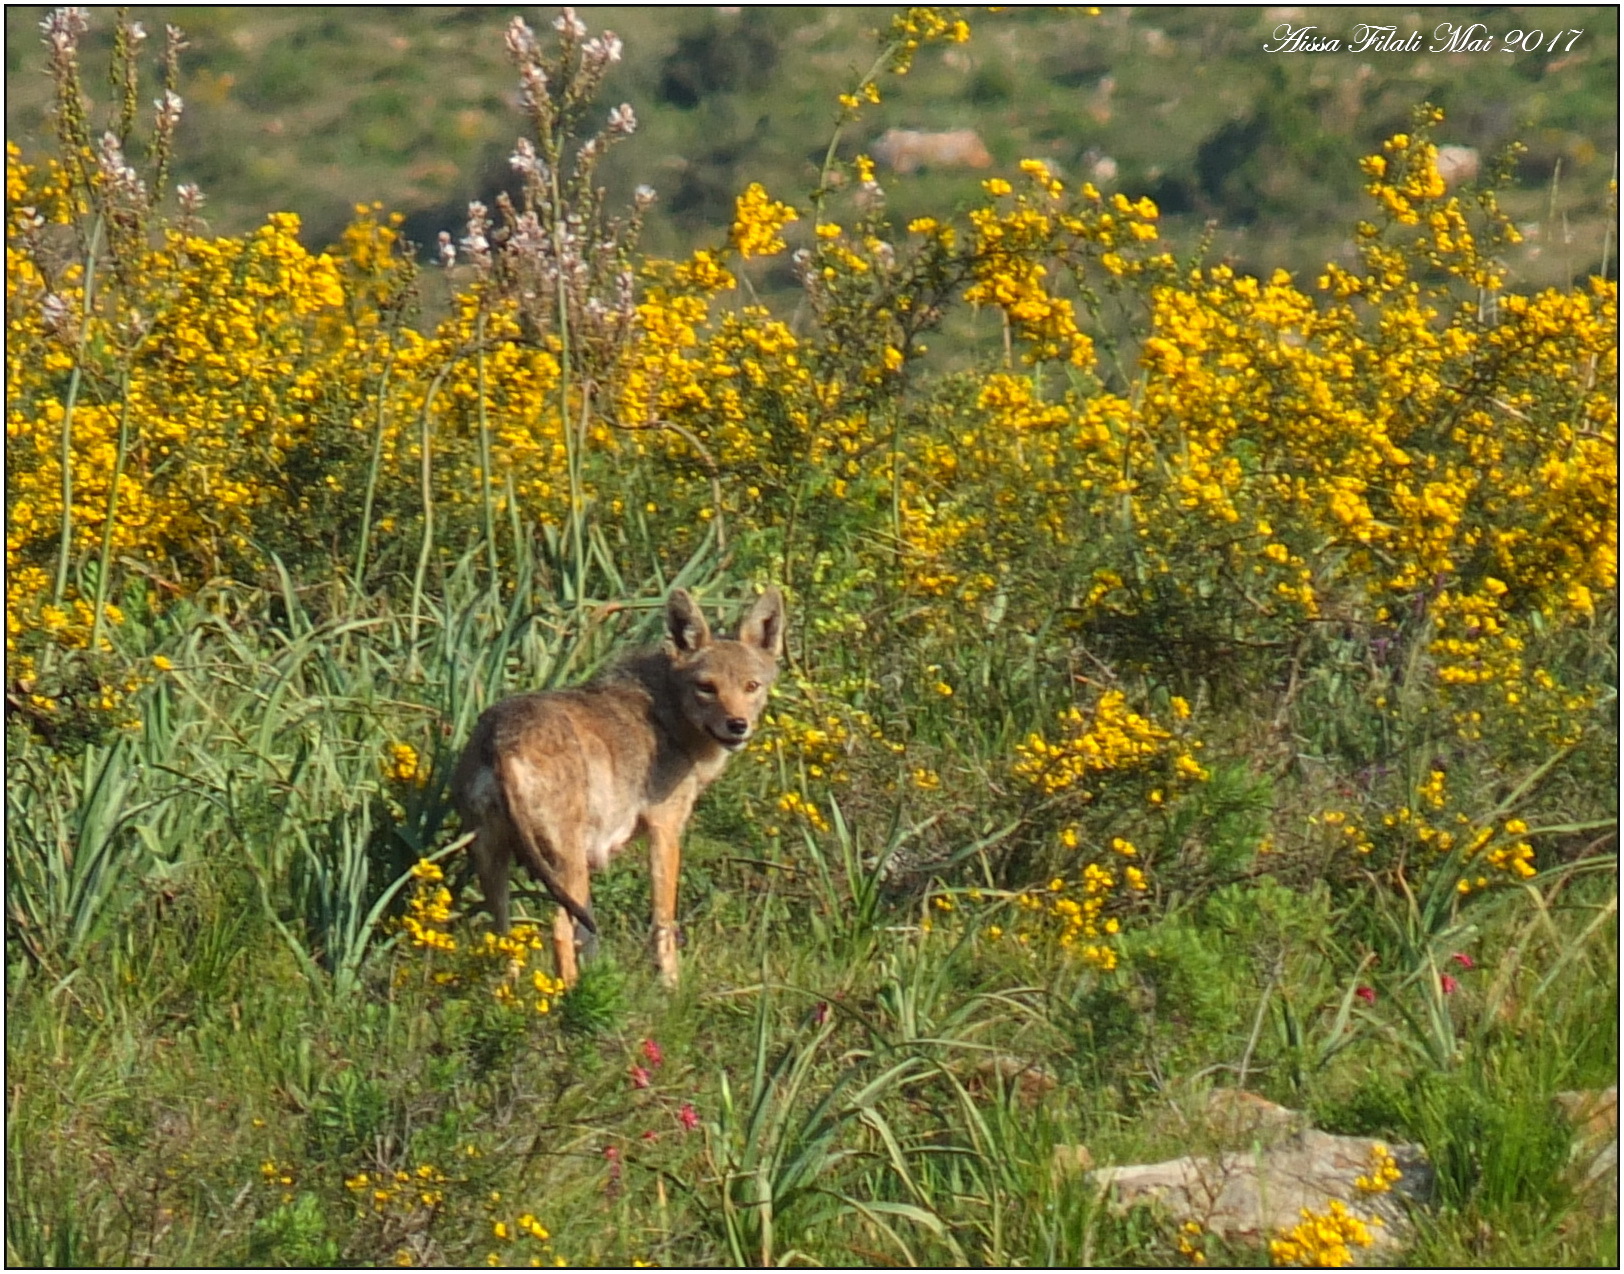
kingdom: Animalia
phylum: Chordata
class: Mammalia
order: Carnivora
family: Canidae
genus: Canis
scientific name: Canis lupaster
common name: African golden wolf
